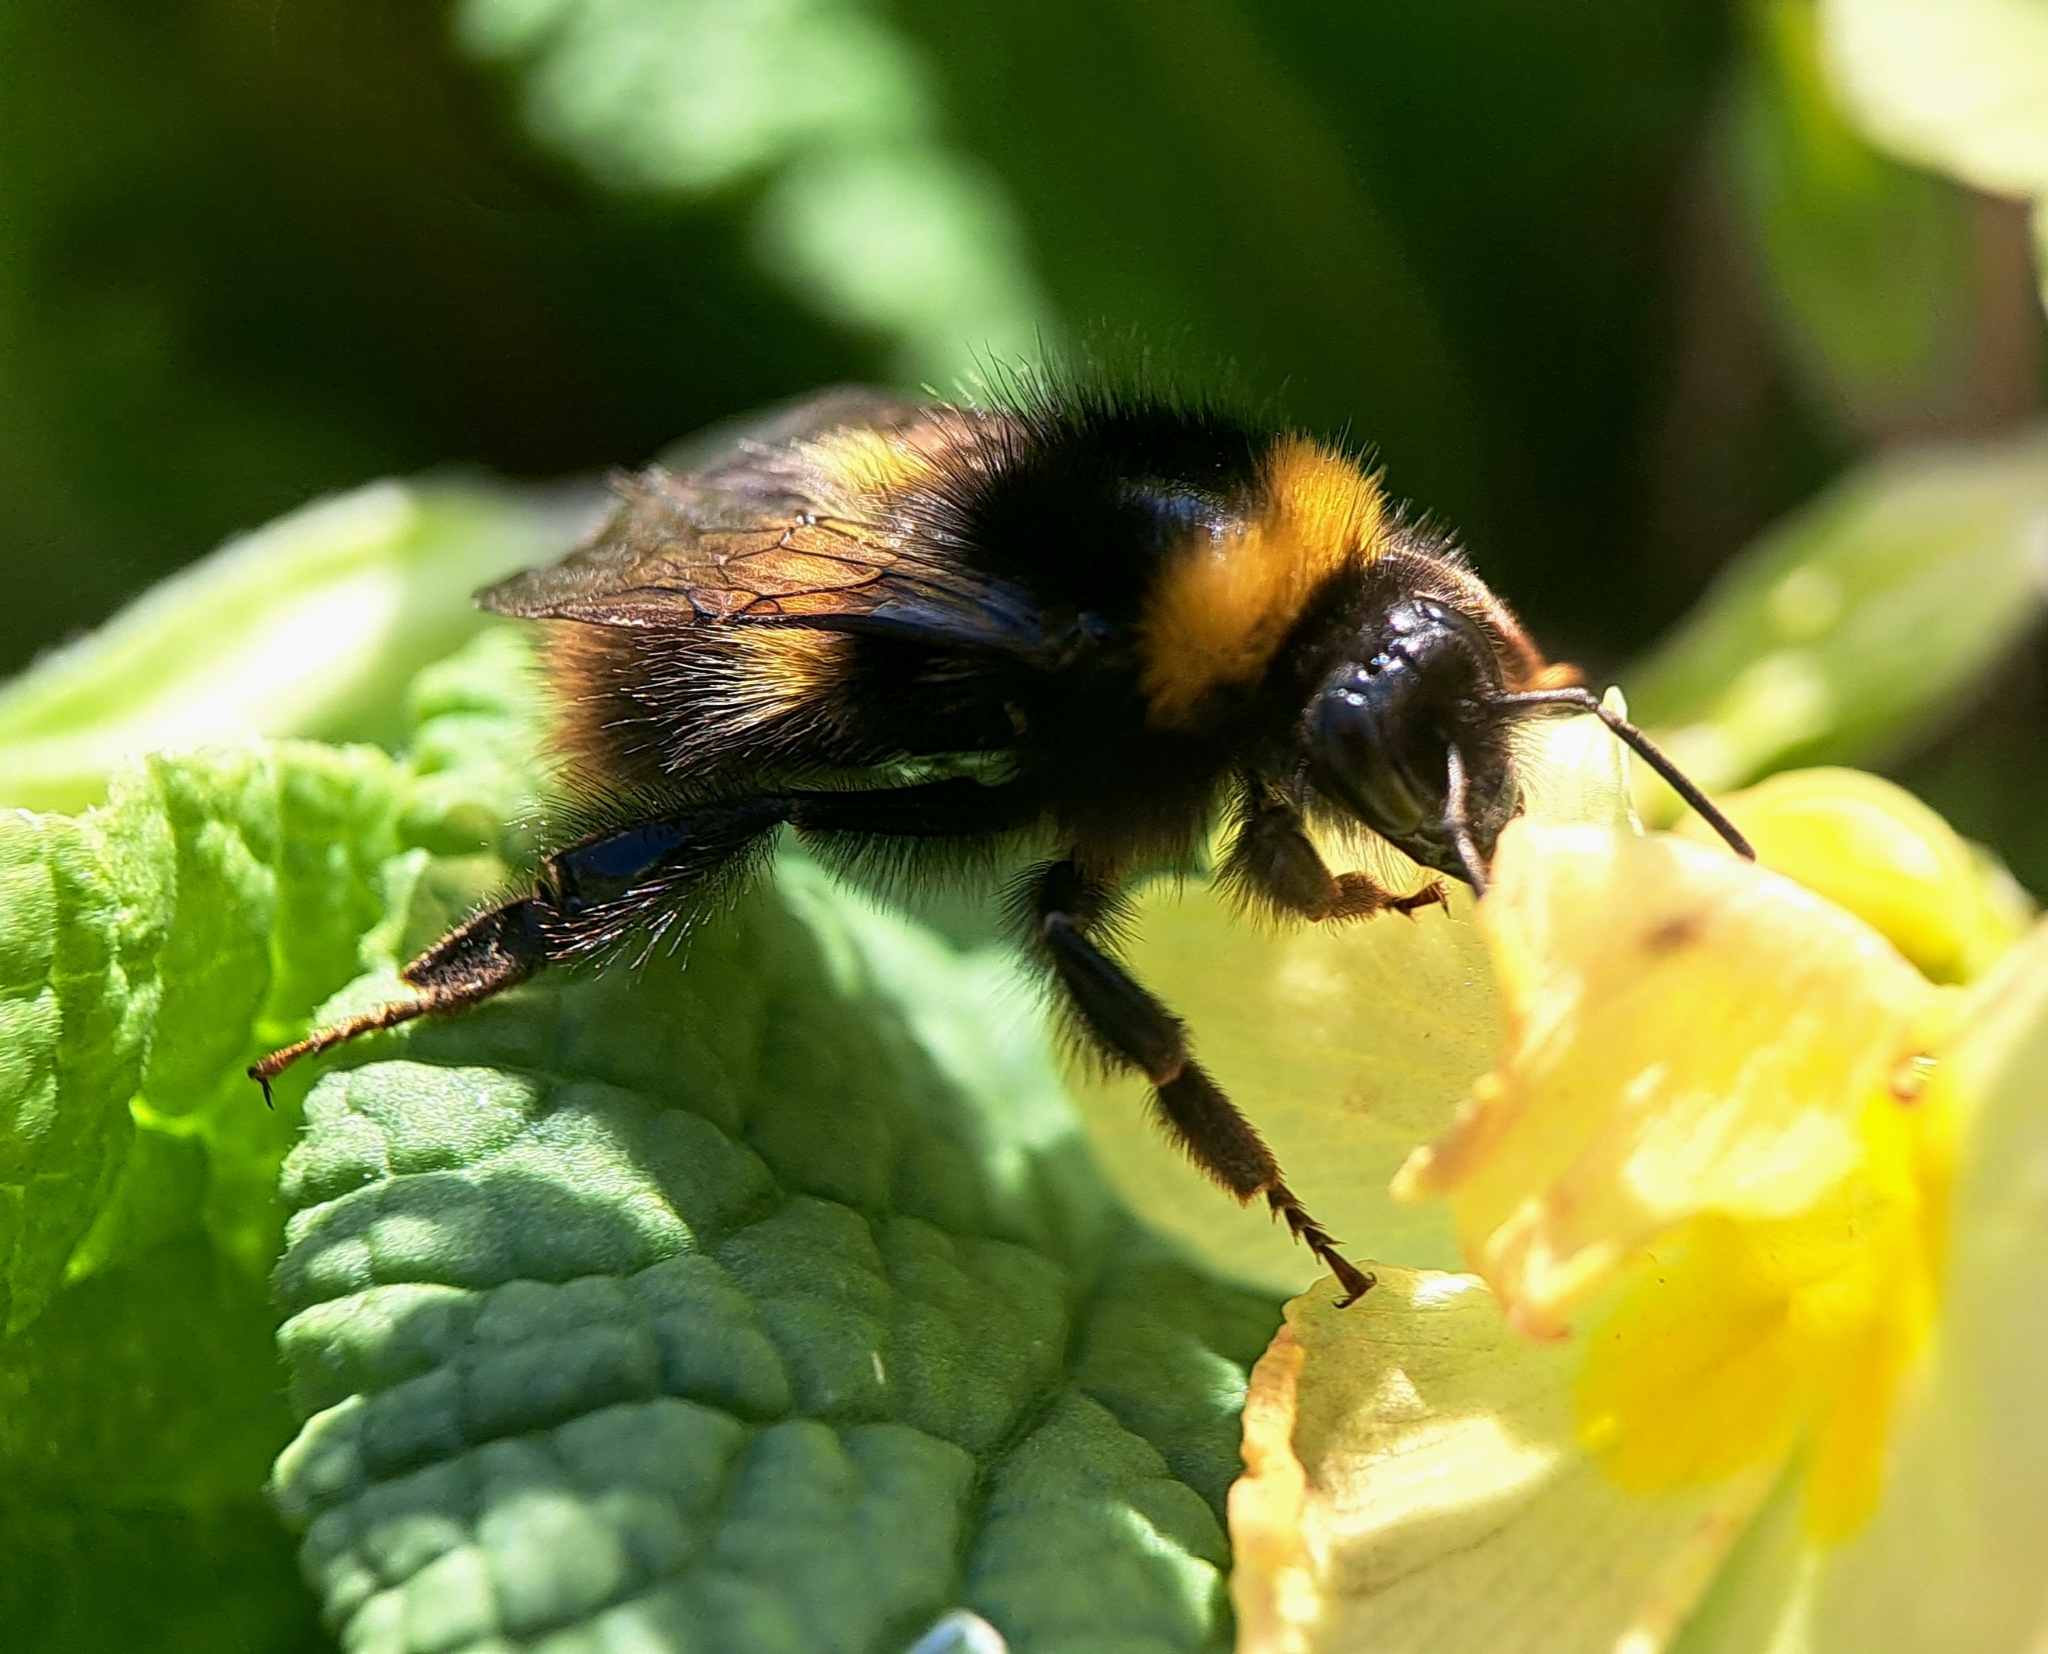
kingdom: Animalia
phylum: Arthropoda
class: Insecta
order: Hymenoptera
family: Apidae
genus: Bombus
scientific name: Bombus pratorum
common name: Early humble-bee
